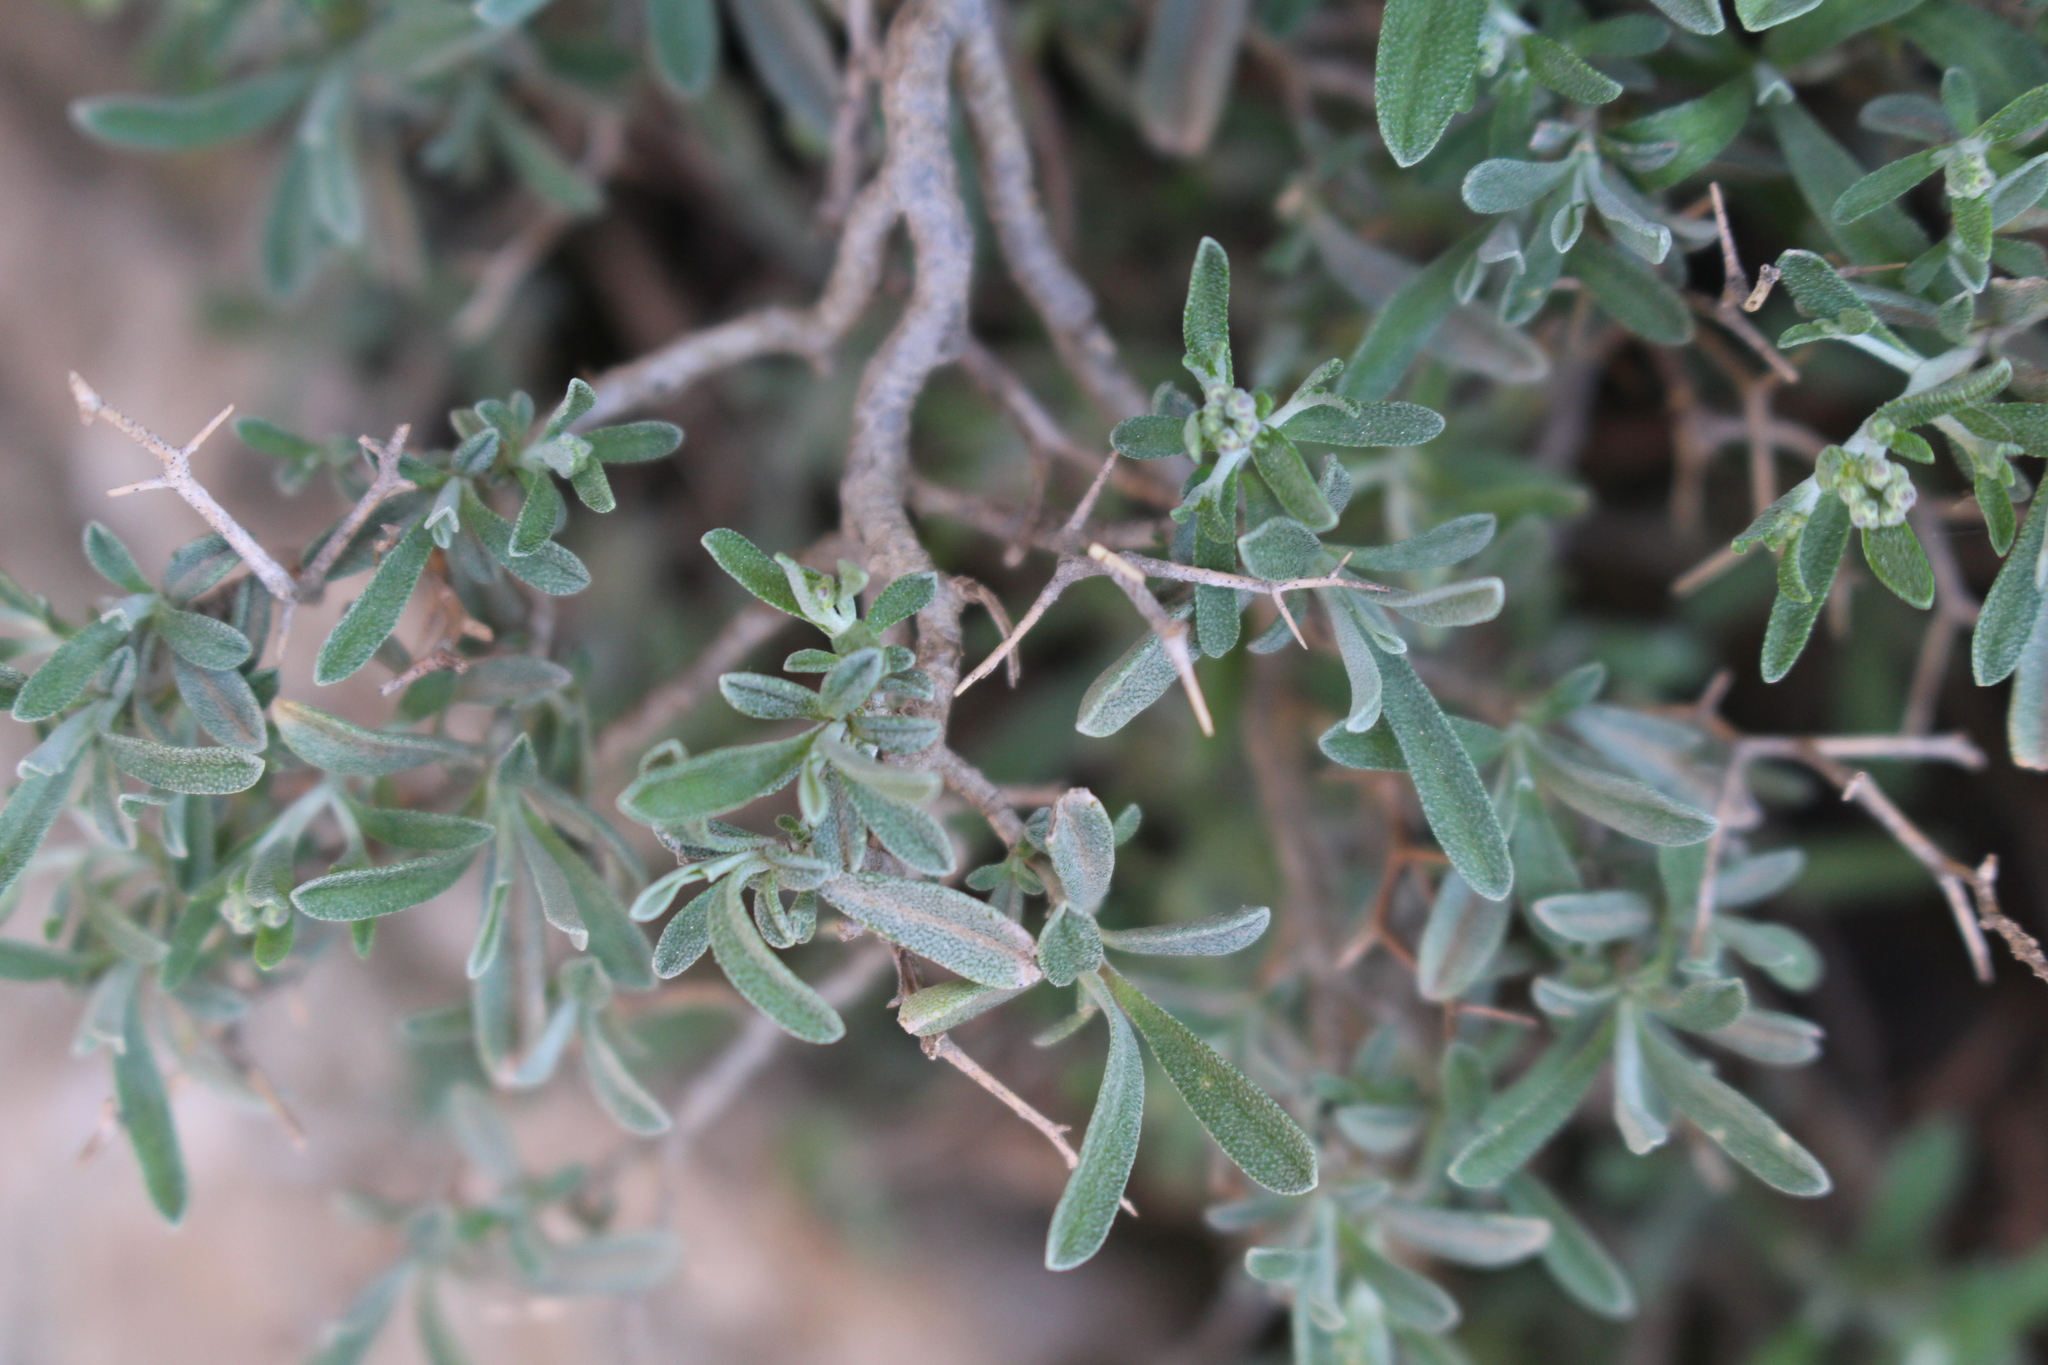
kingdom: Plantae
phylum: Tracheophyta
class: Magnoliopsida
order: Brassicales
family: Brassicaceae
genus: Hormathophylla
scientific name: Hormathophylla spinosa
